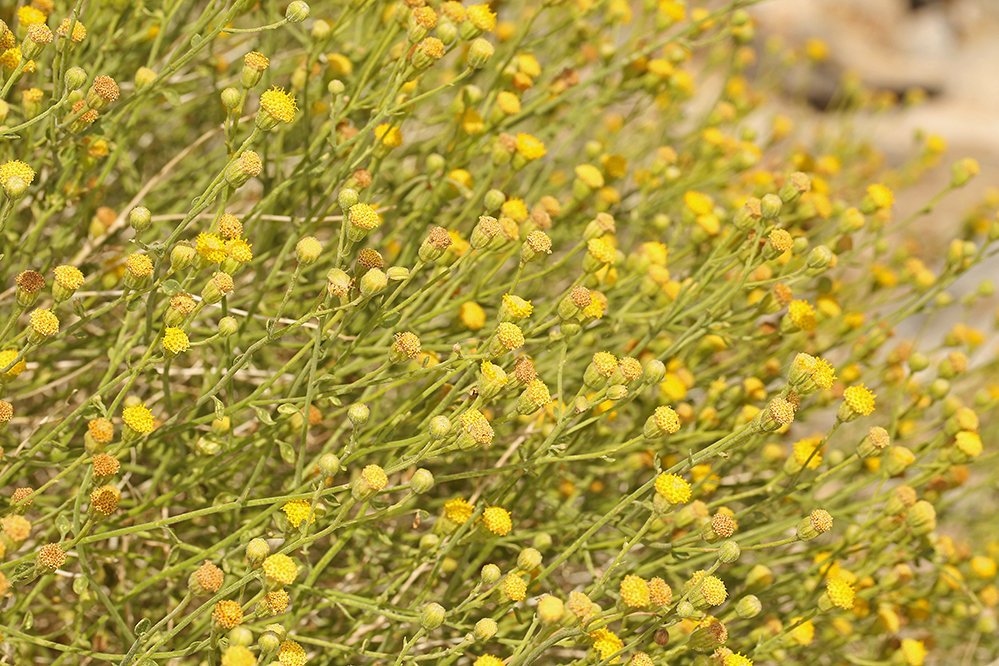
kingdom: Plantae
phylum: Tracheophyta
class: Magnoliopsida
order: Asterales
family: Asteraceae
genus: Laphamia
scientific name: Laphamia megalocephala
